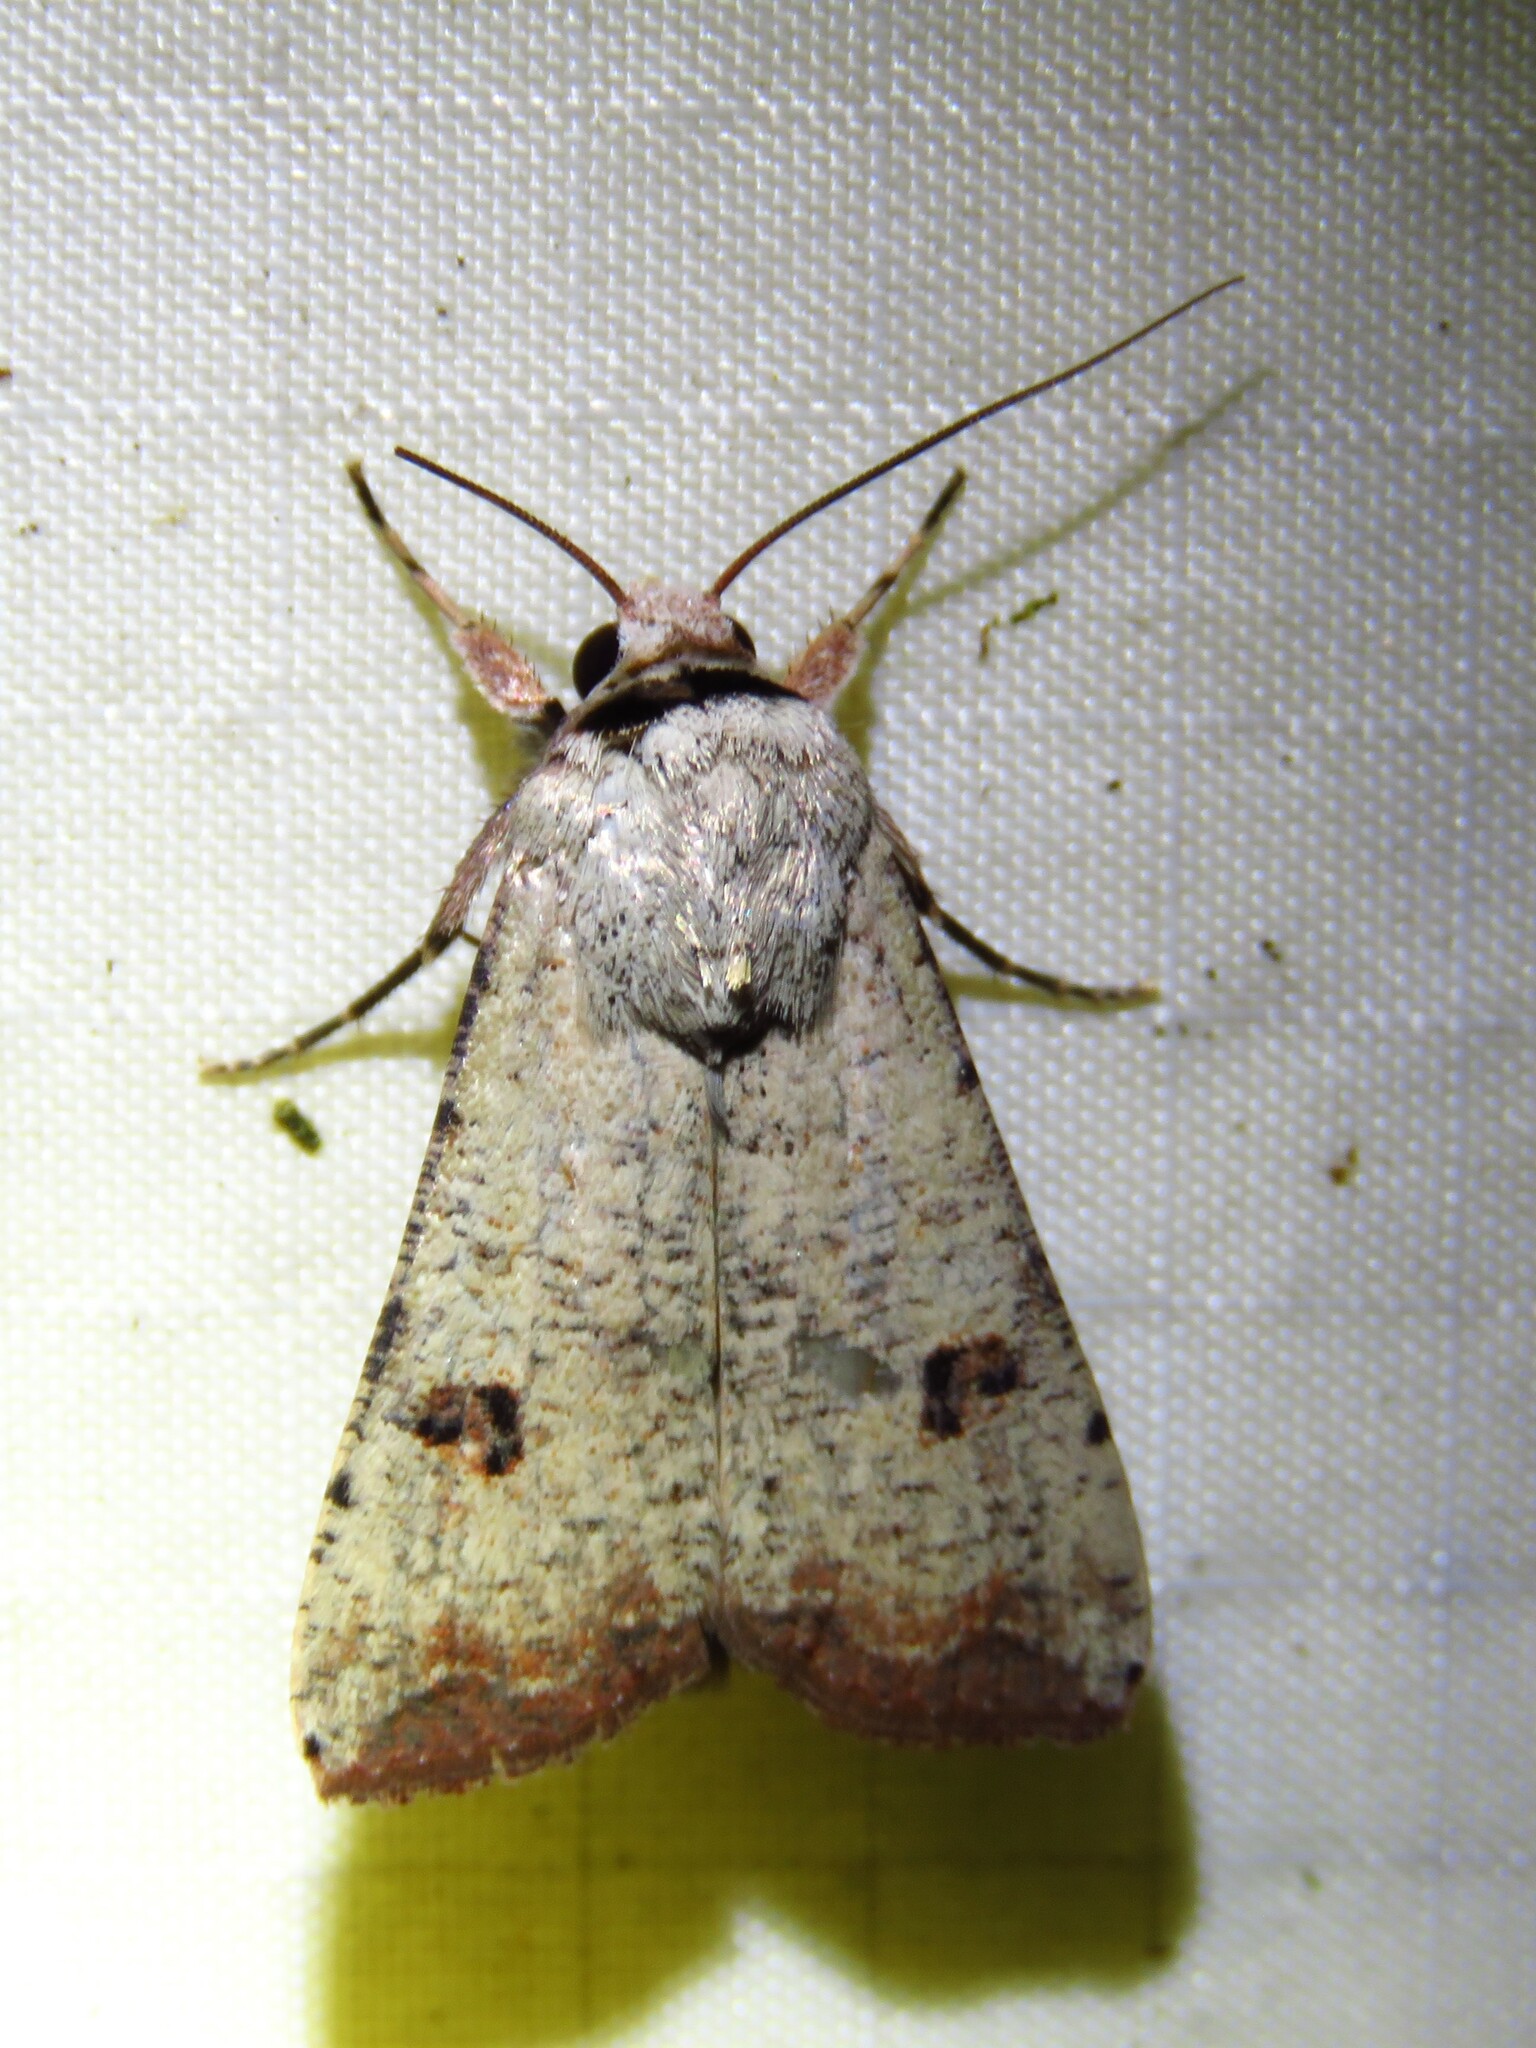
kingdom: Animalia
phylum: Arthropoda
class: Insecta
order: Lepidoptera
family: Noctuidae
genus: Anicla
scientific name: Anicla infecta
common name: Green cutworm
